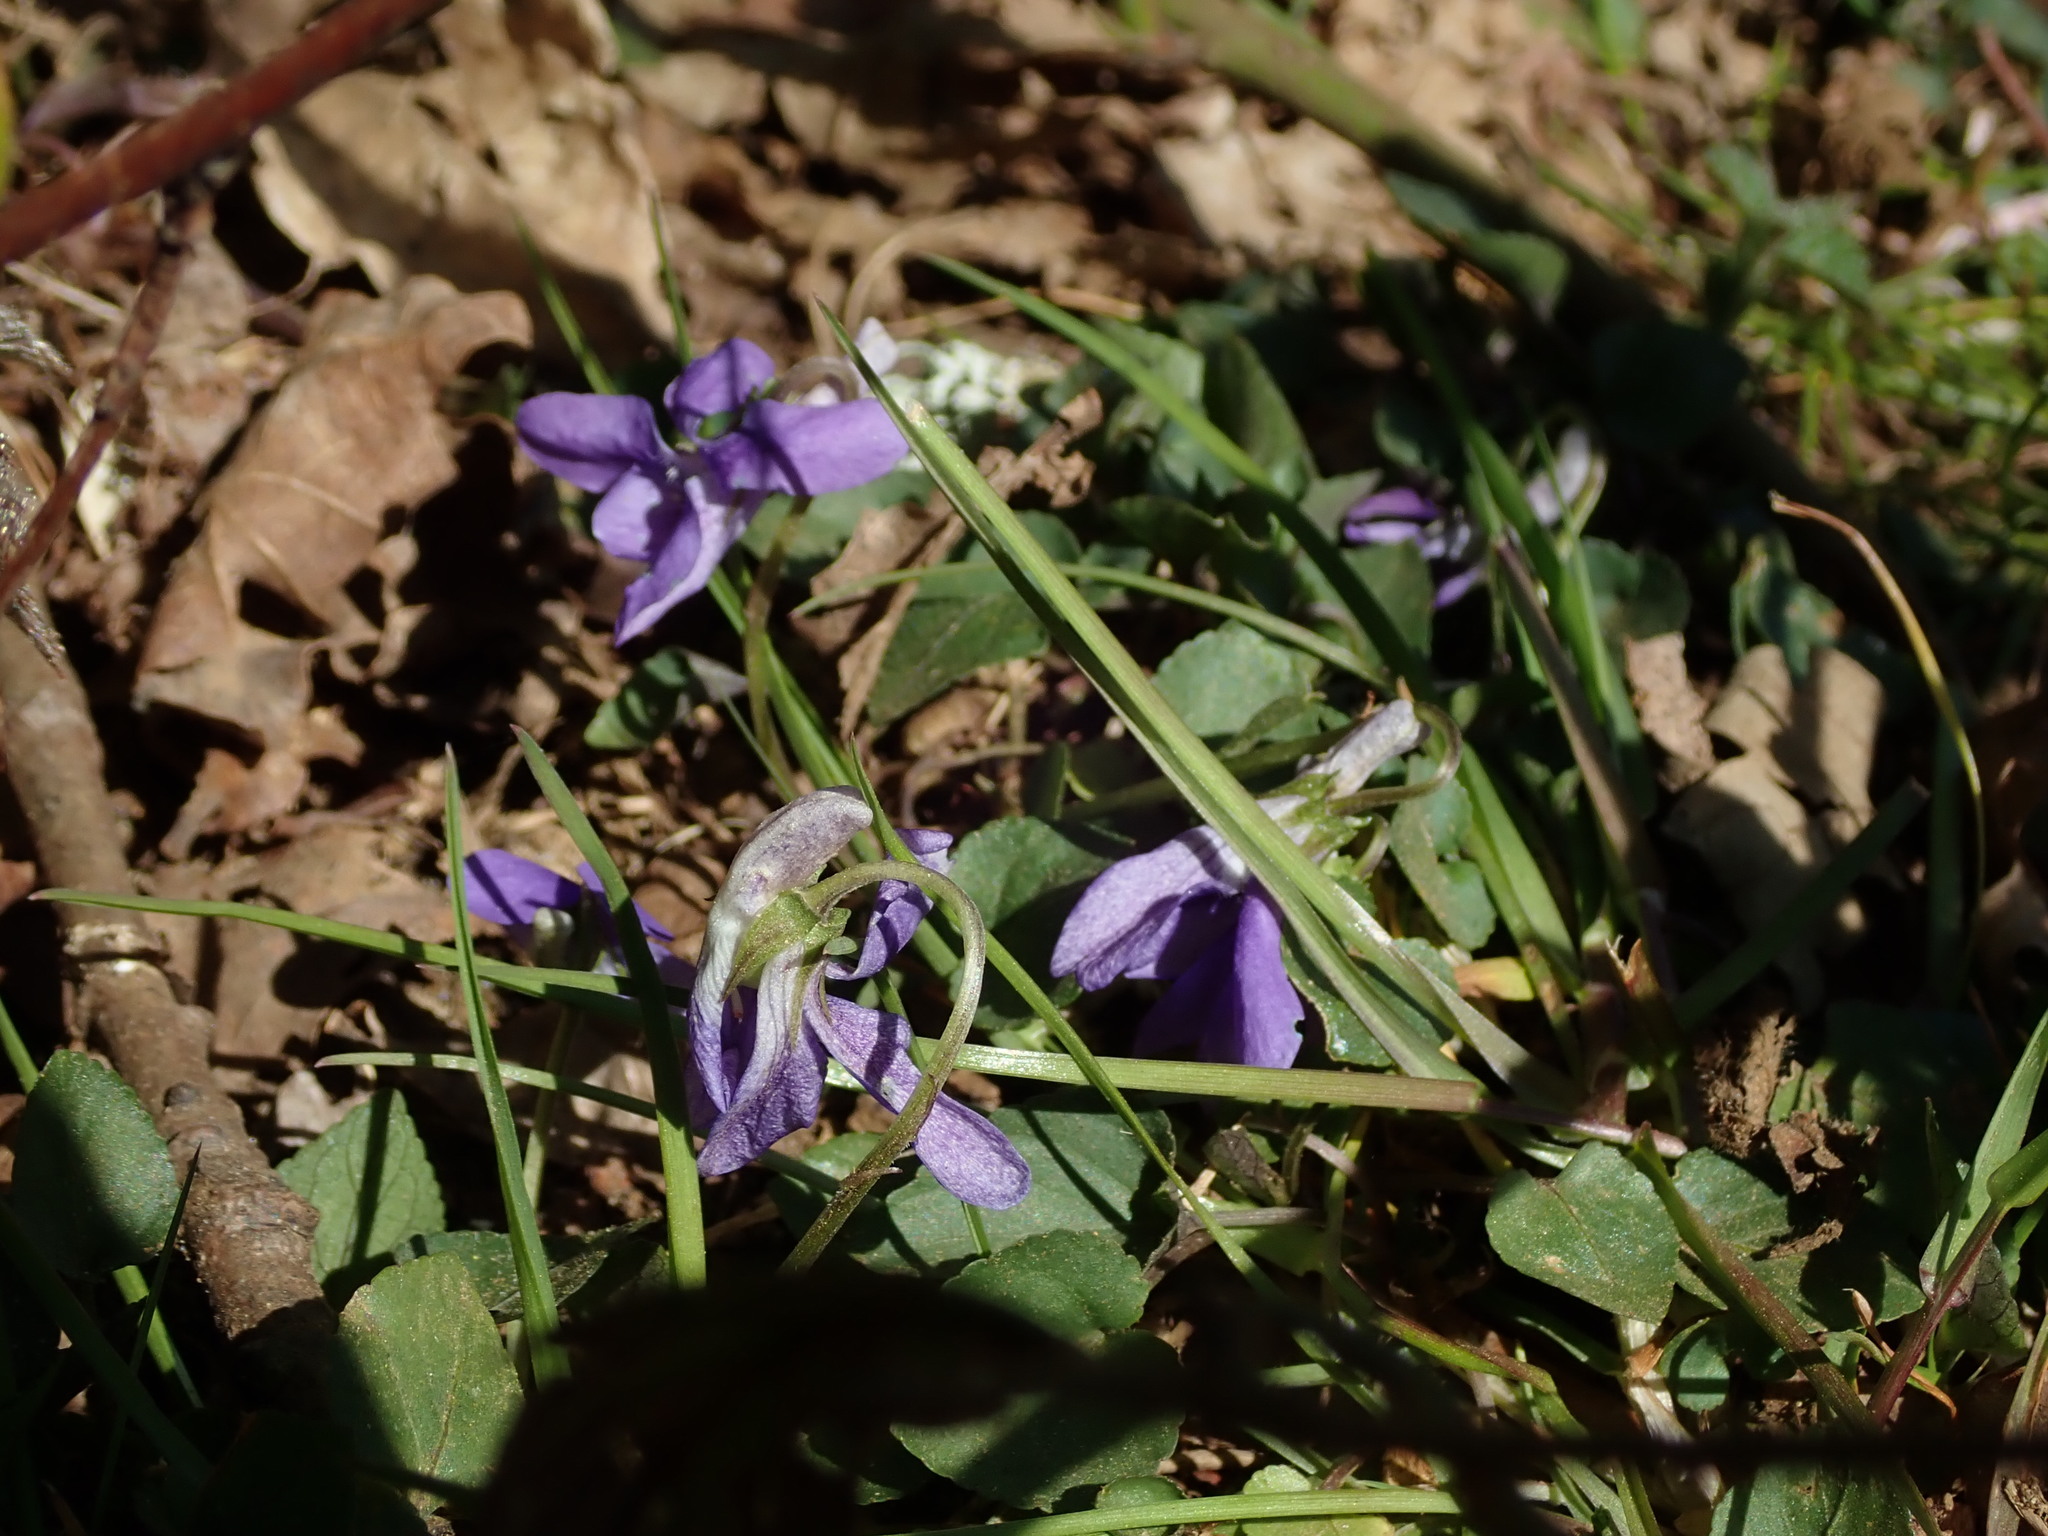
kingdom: Plantae
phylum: Tracheophyta
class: Magnoliopsida
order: Malpighiales
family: Violaceae
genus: Viola
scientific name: Viola riviniana
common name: Common dog-violet
